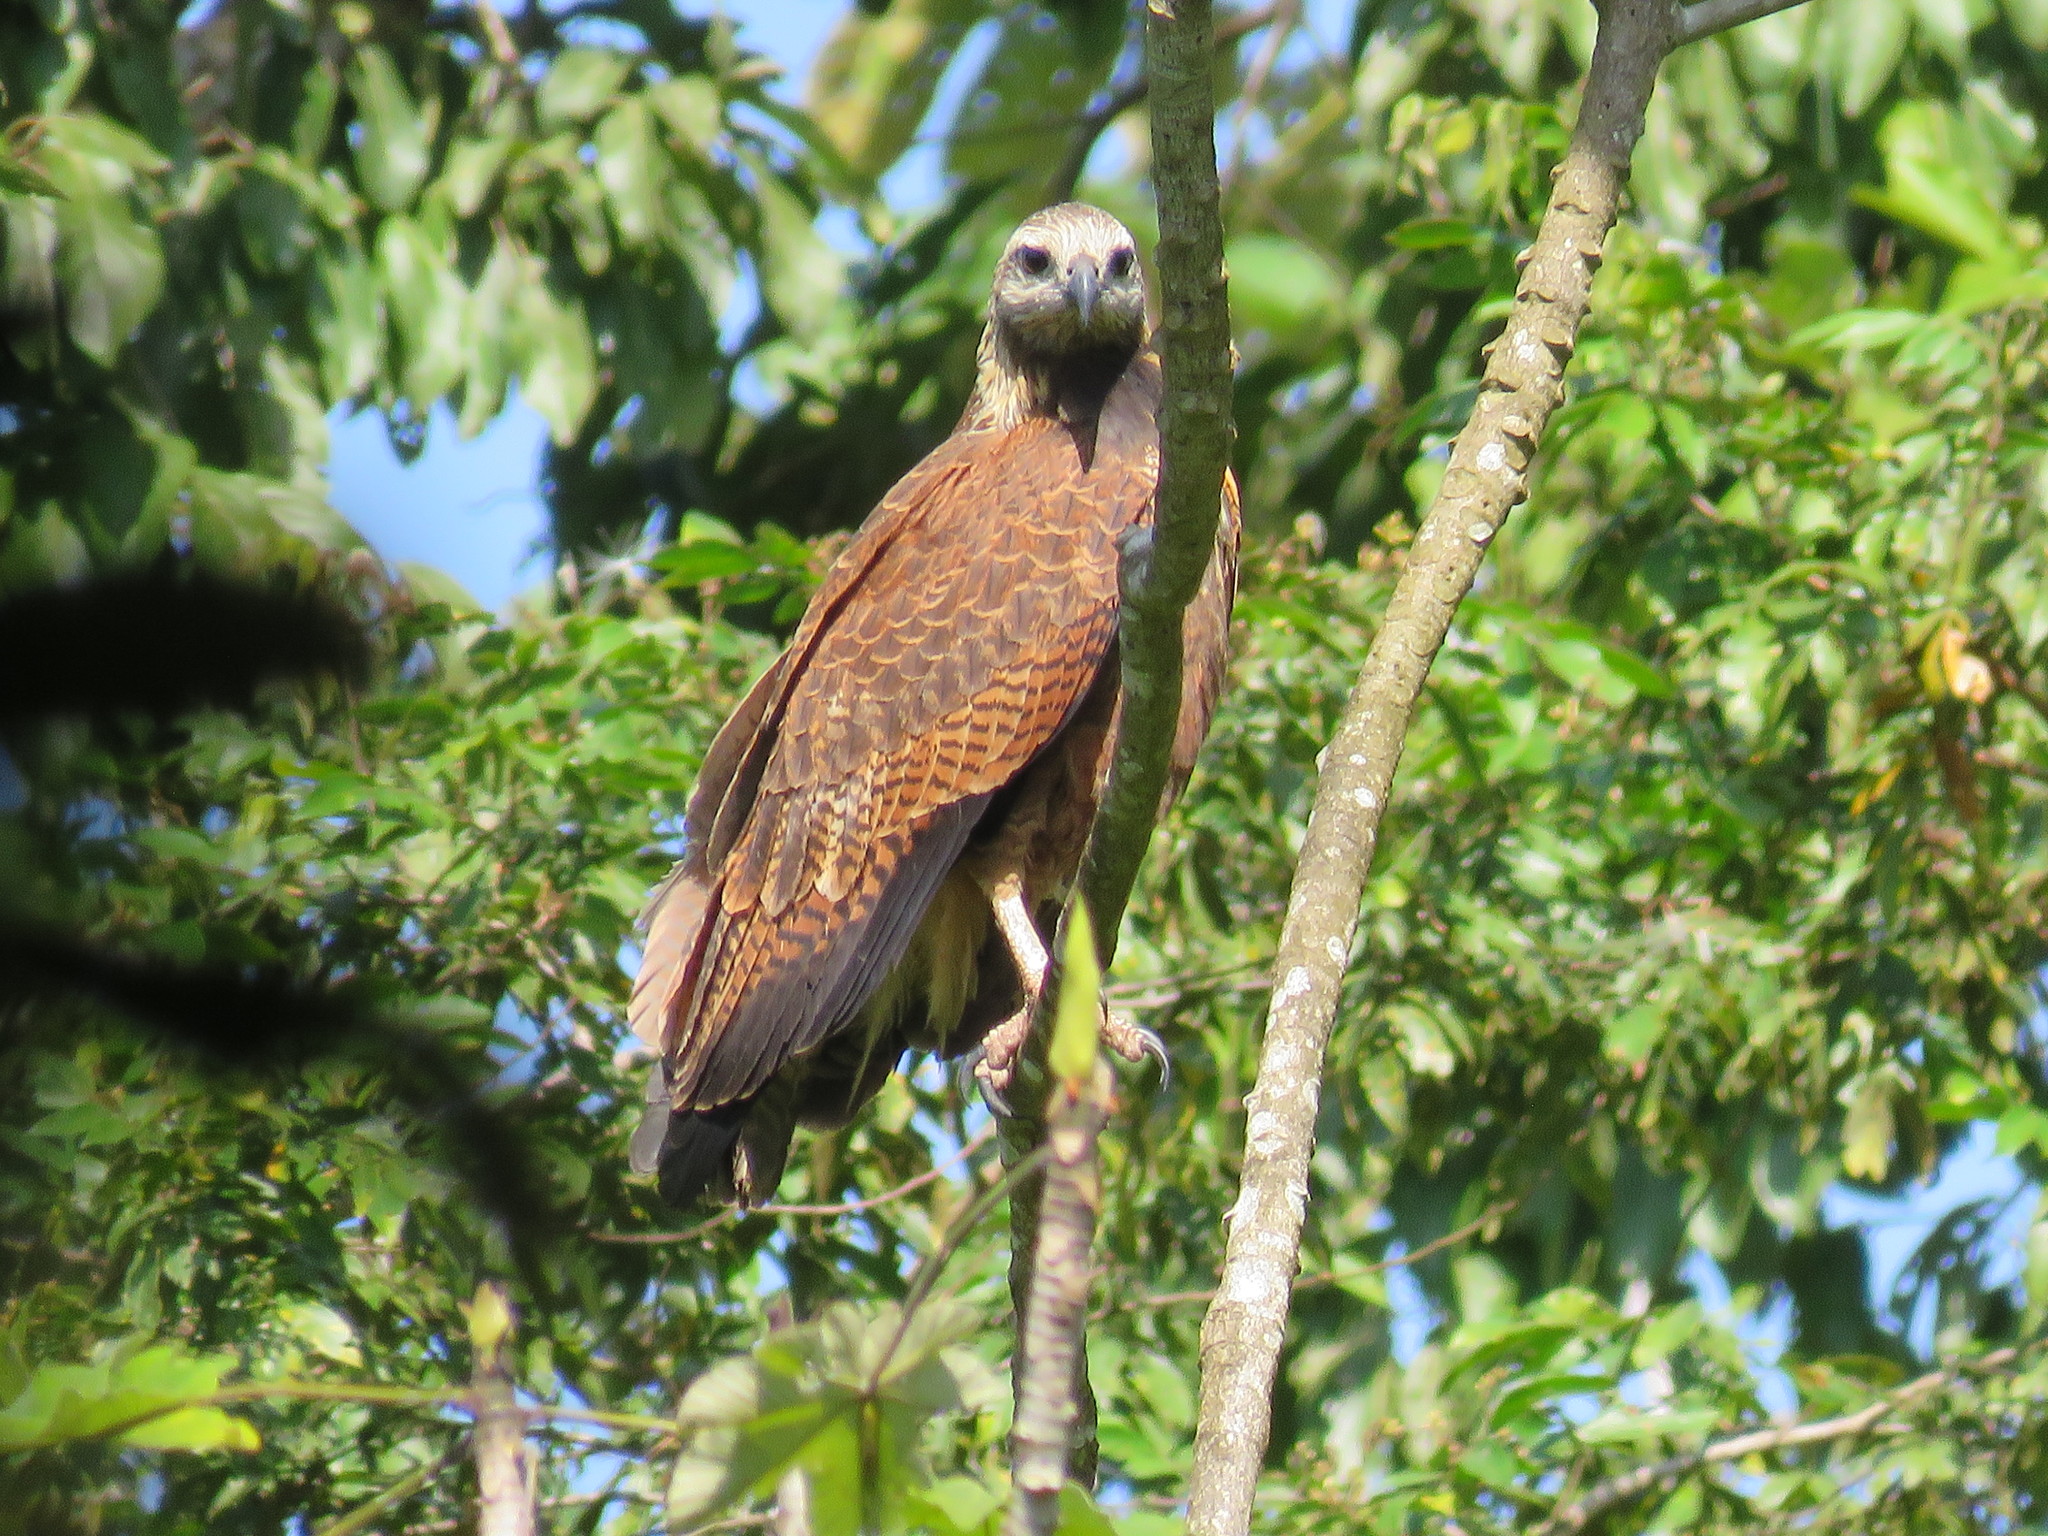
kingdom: Animalia
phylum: Chordata
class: Aves
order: Accipitriformes
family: Accipitridae
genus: Busarellus
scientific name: Busarellus nigricollis
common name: Black-collared hawk
